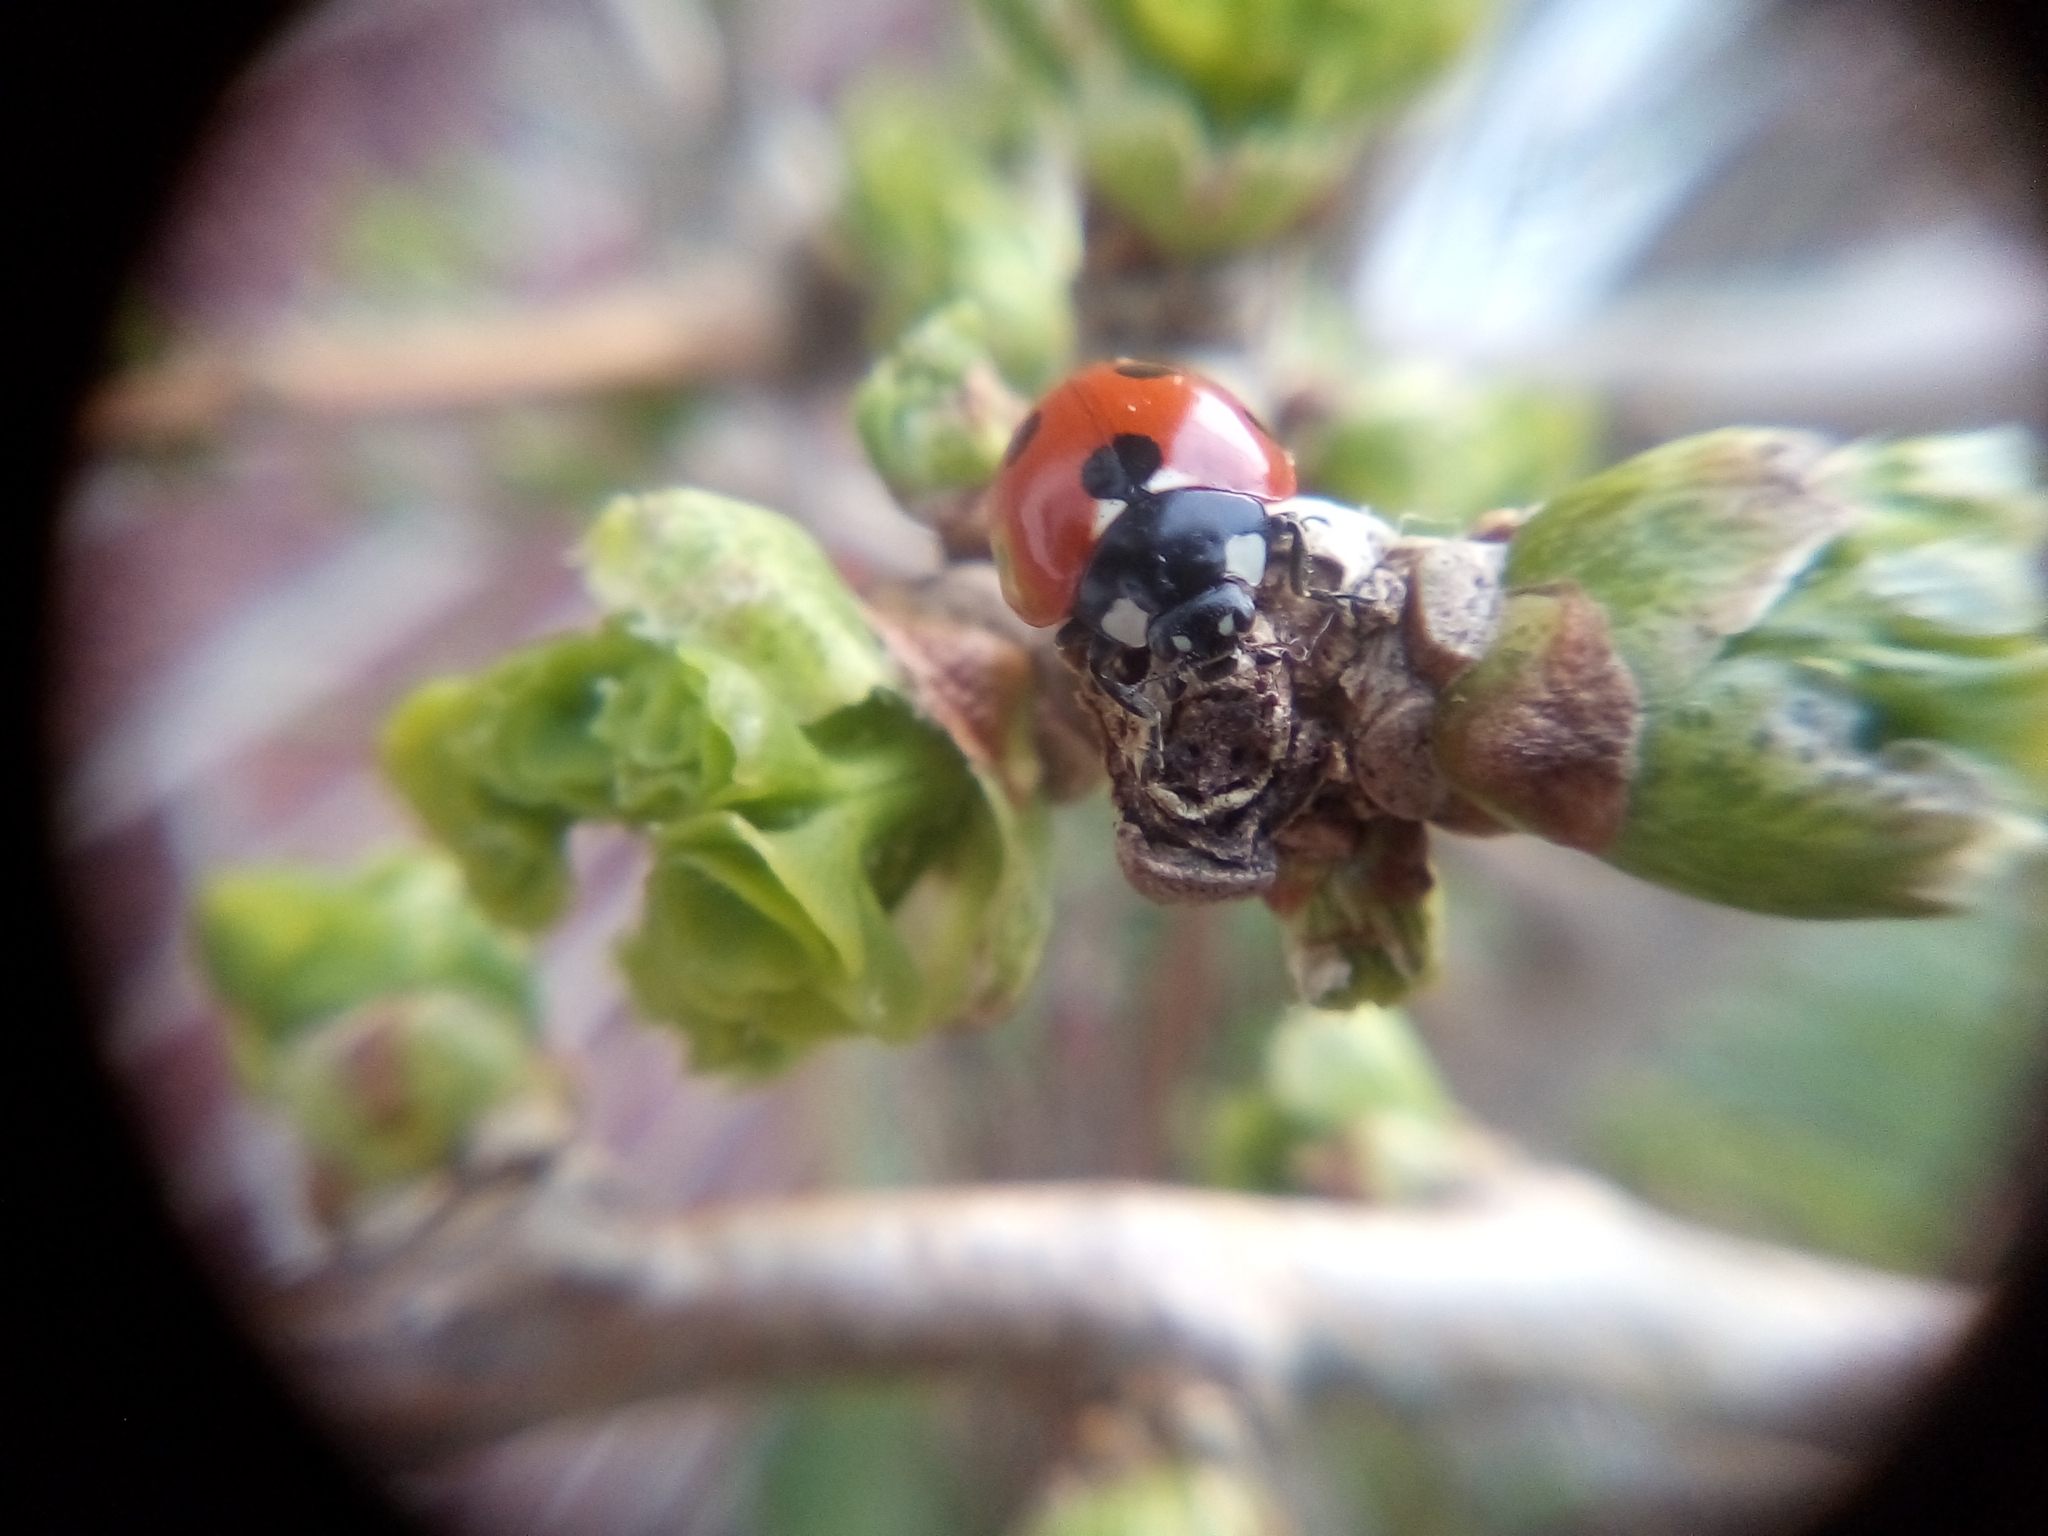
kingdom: Animalia
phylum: Arthropoda
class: Insecta
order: Coleoptera
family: Coccinellidae
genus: Coccinella
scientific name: Coccinella septempunctata
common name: Sevenspotted lady beetle
